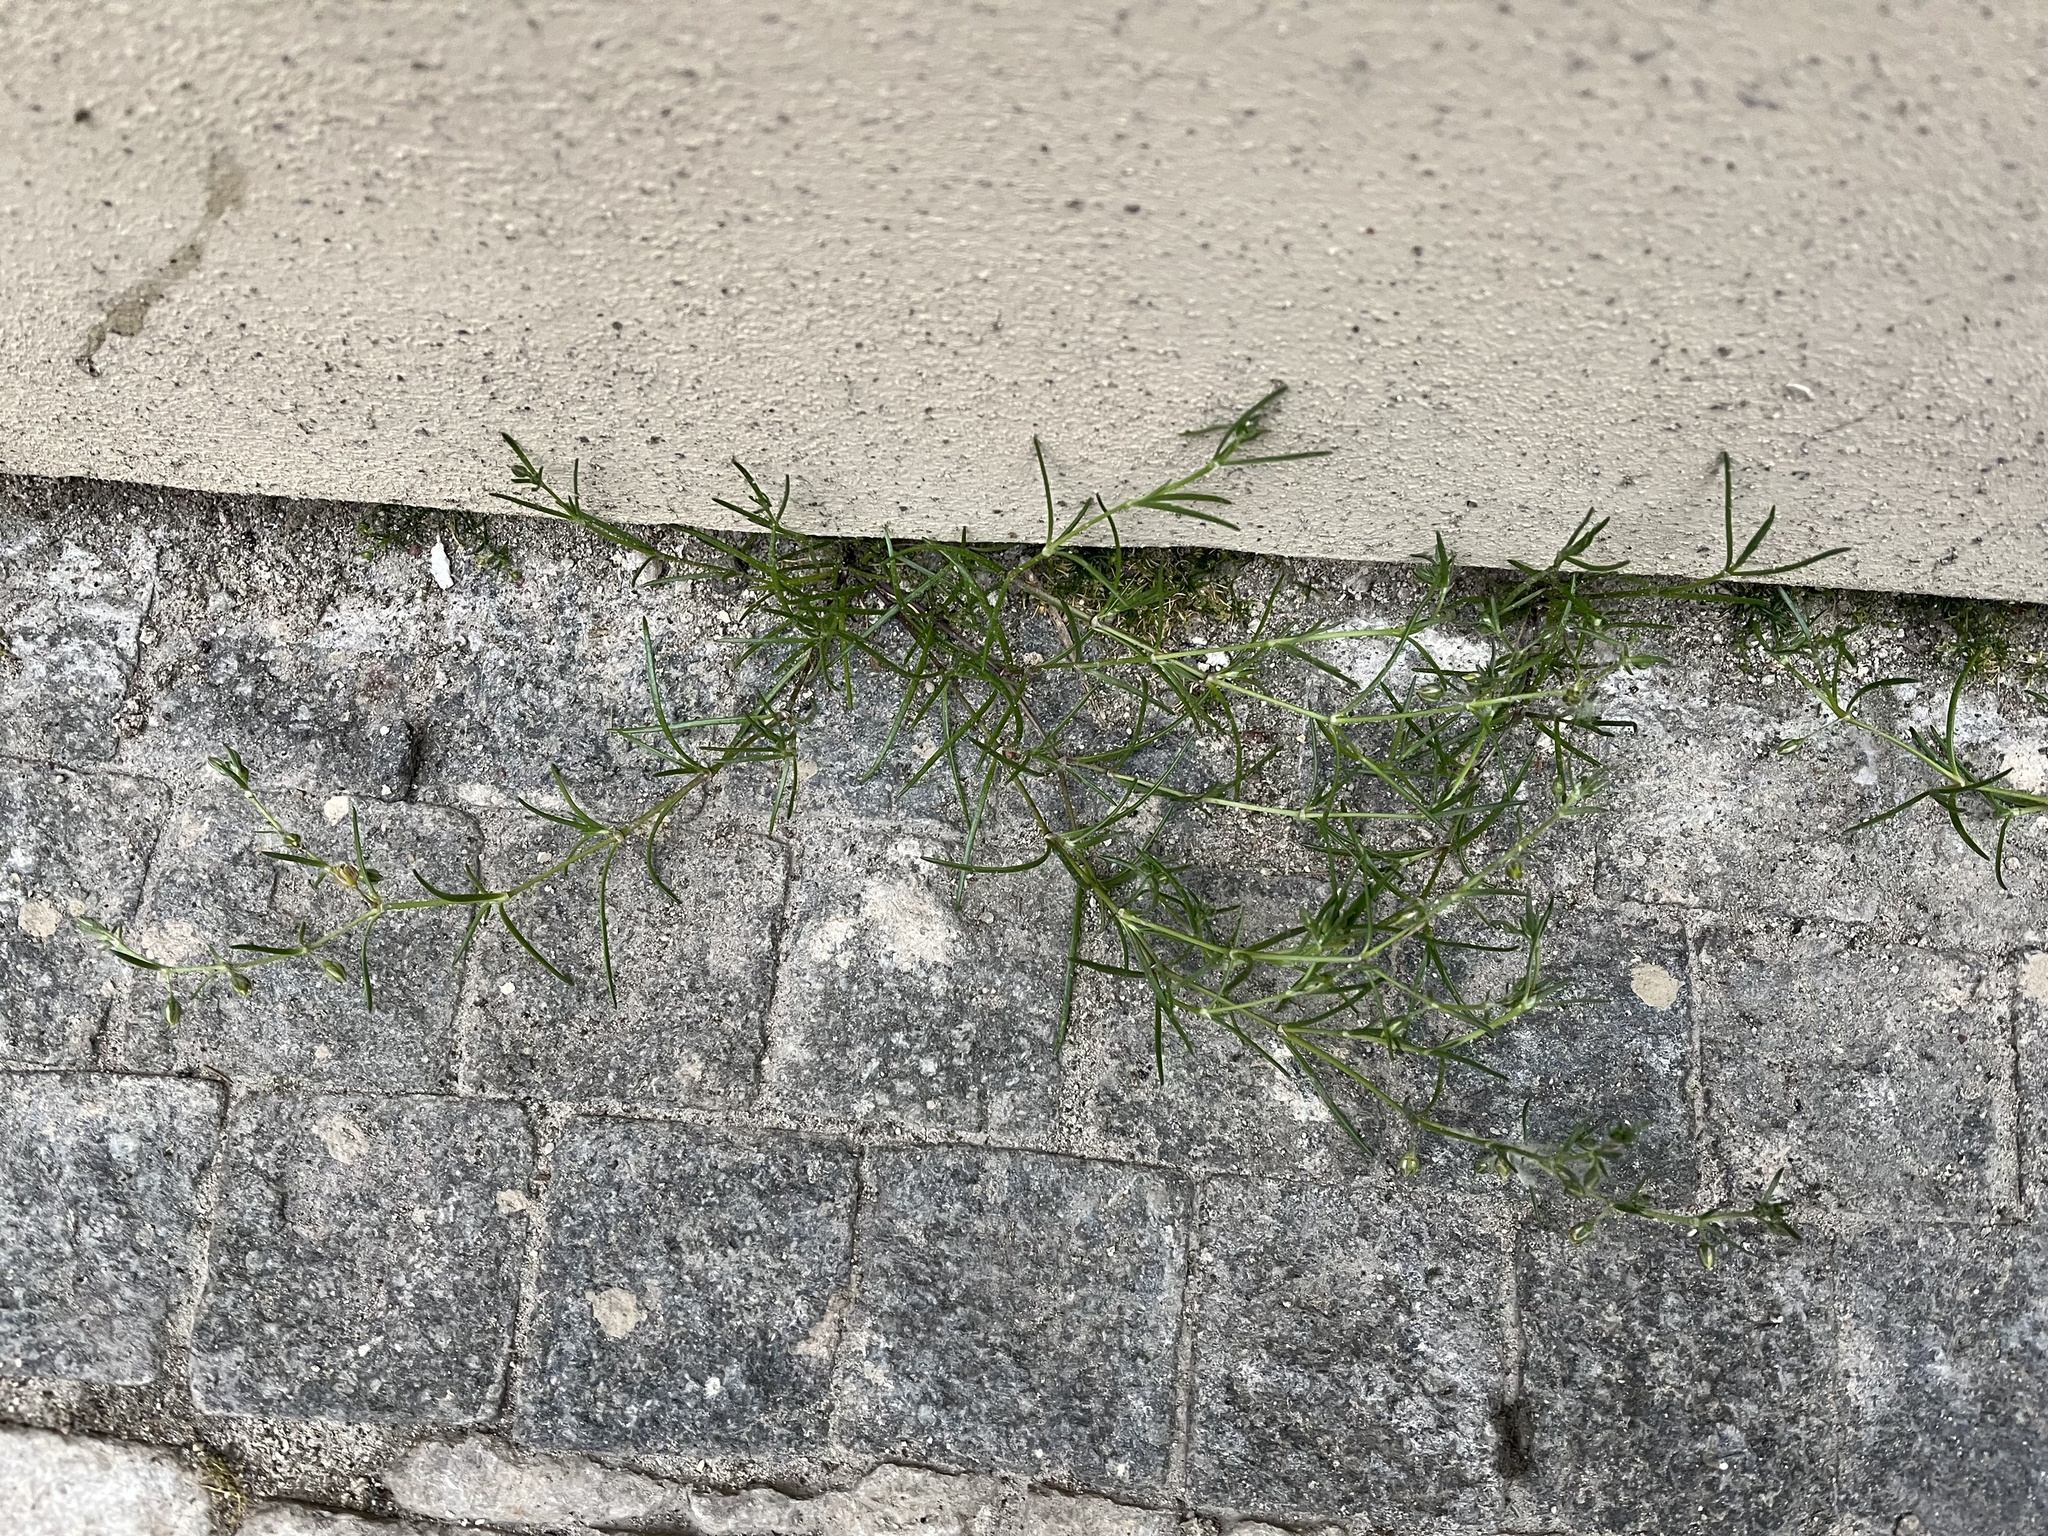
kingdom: Plantae
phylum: Tracheophyta
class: Magnoliopsida
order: Caryophyllales
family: Caryophyllaceae
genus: Spergularia
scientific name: Spergularia marina
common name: Lesser sea-spurrey
